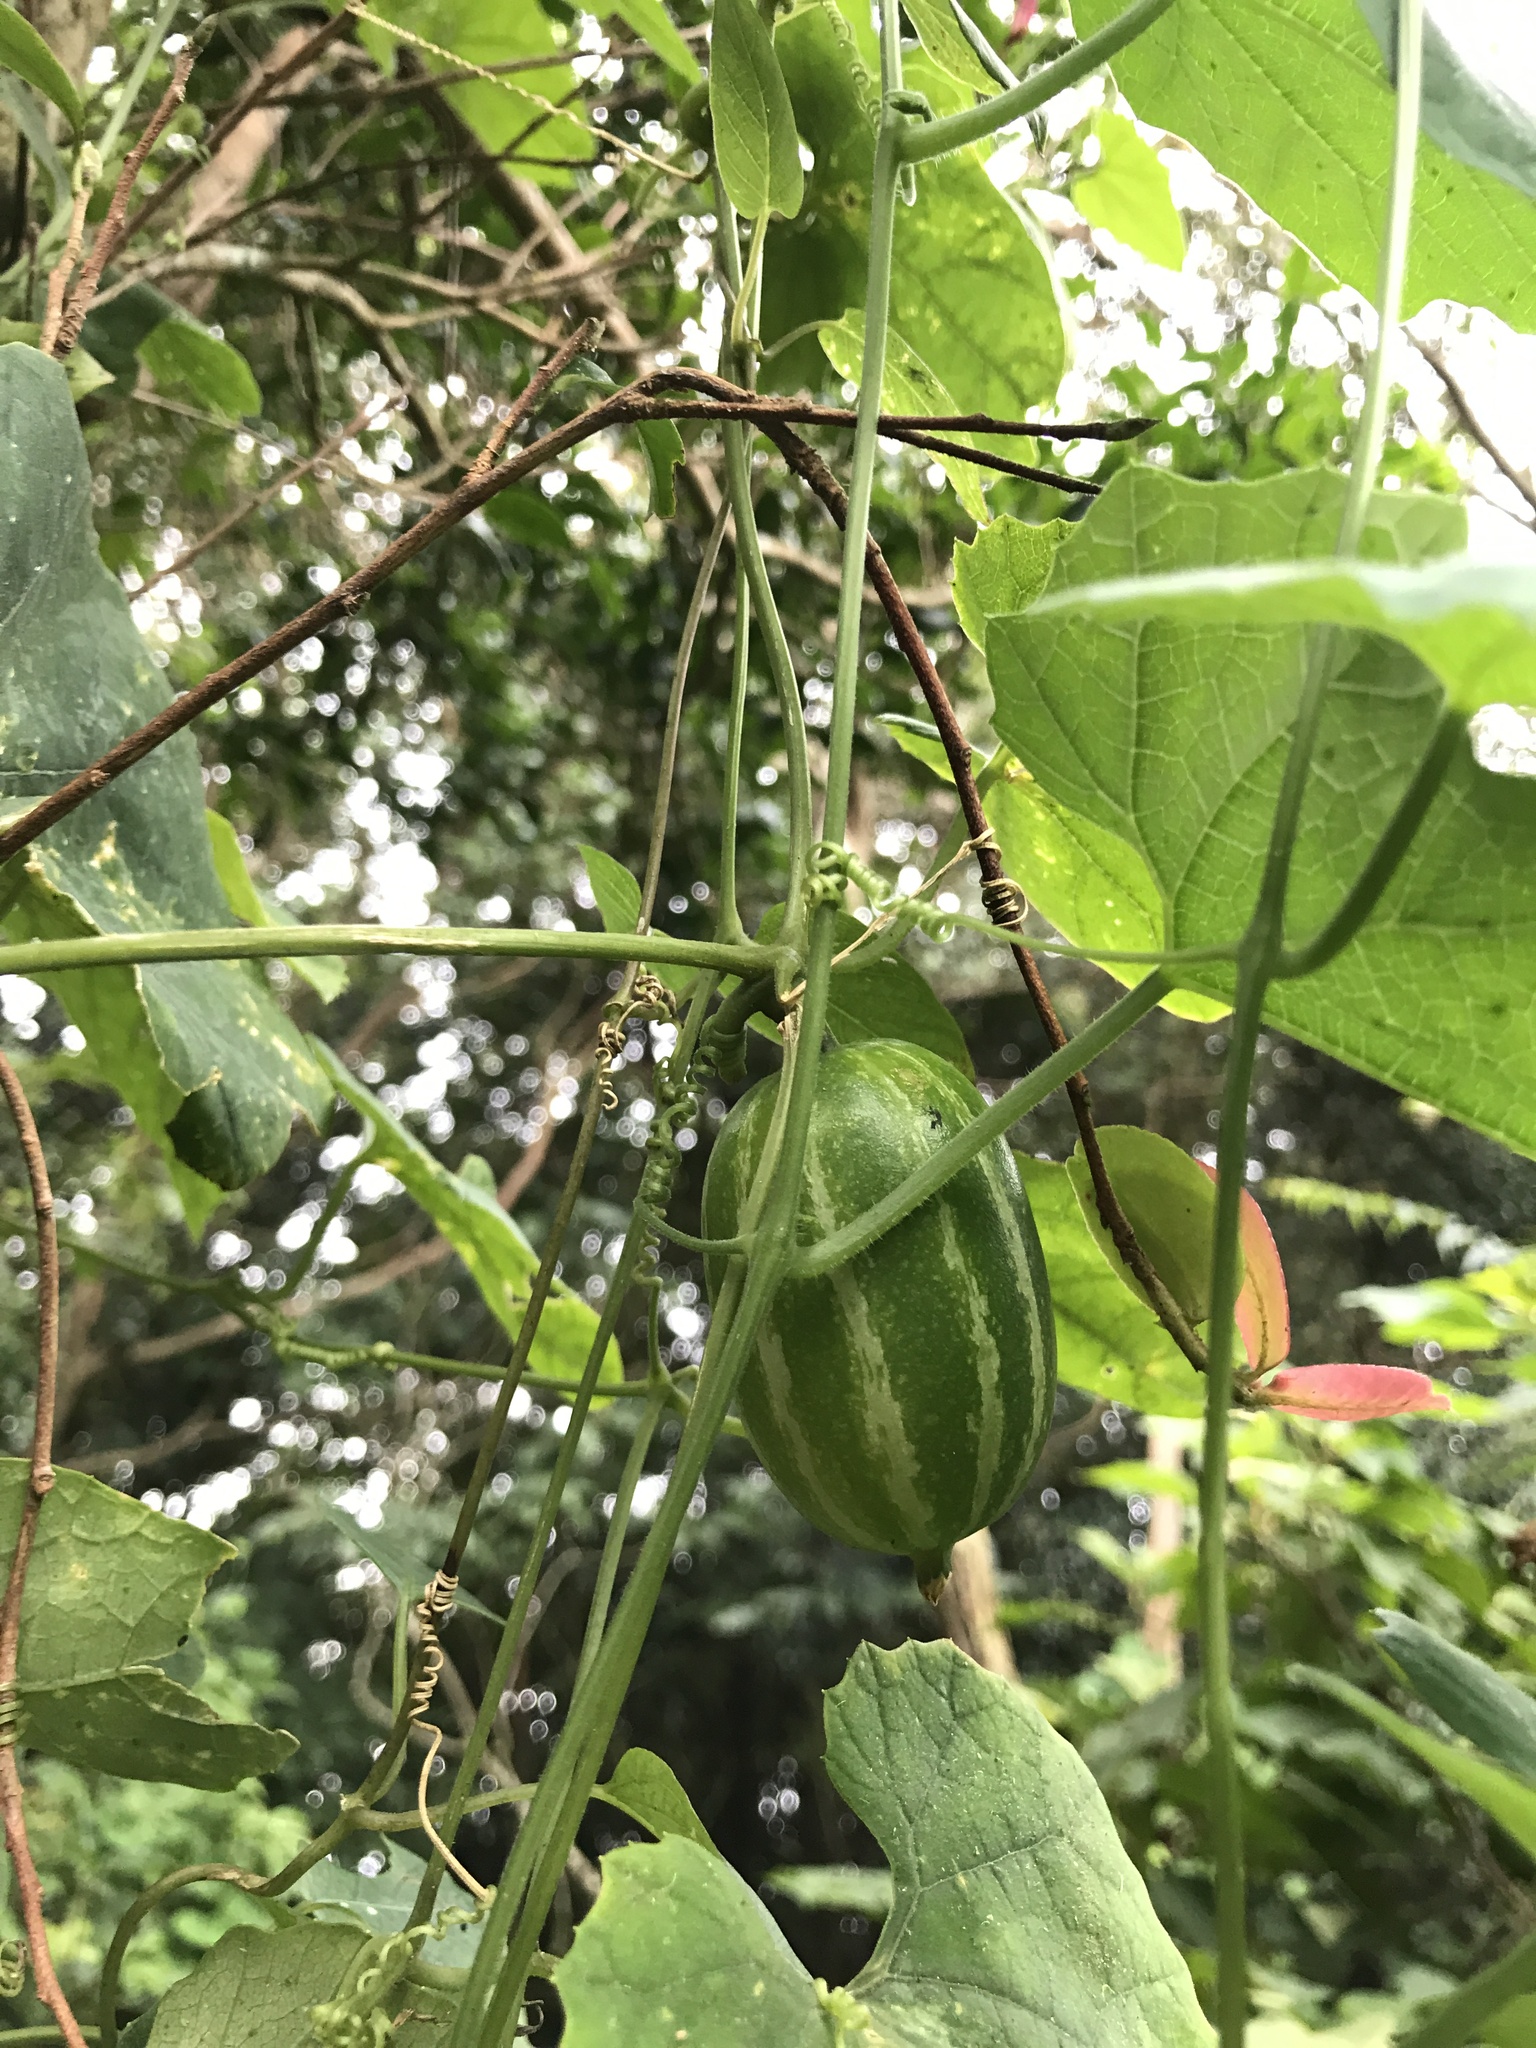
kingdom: Plantae
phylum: Tracheophyta
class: Magnoliopsida
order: Cucurbitales
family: Cucurbitaceae
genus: Trichosanthes
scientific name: Trichosanthes cucumeroides
